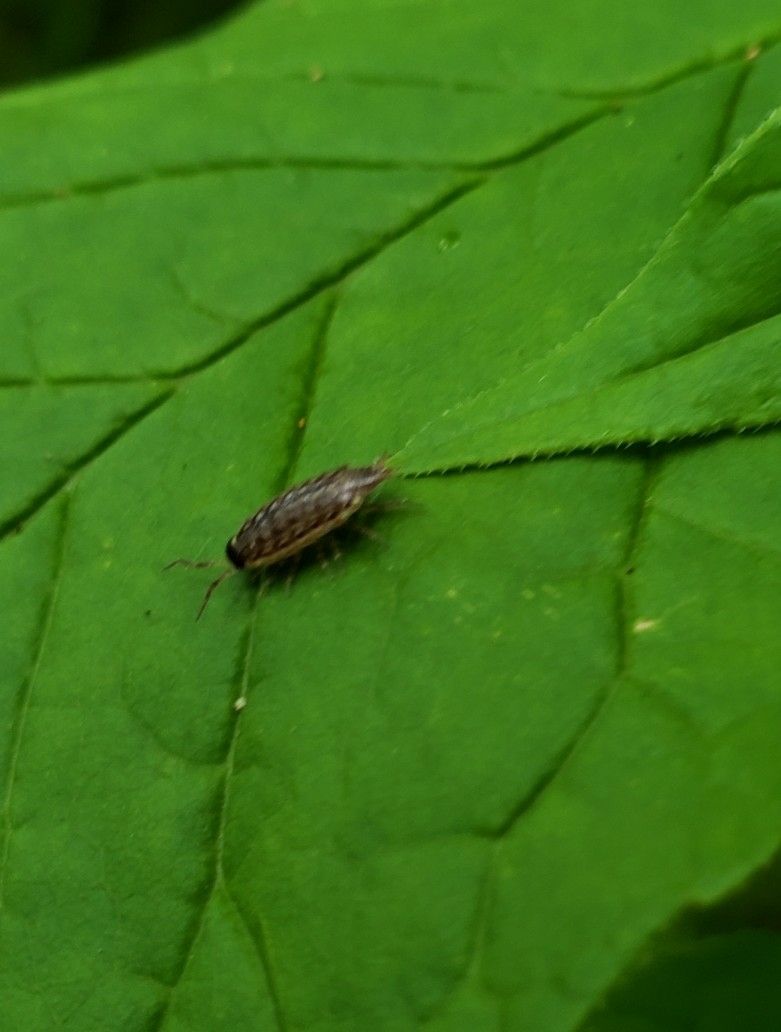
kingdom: Animalia
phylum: Arthropoda
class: Malacostraca
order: Isopoda
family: Philosciidae
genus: Philoscia
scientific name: Philoscia muscorum
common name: Common striped woodlouse
